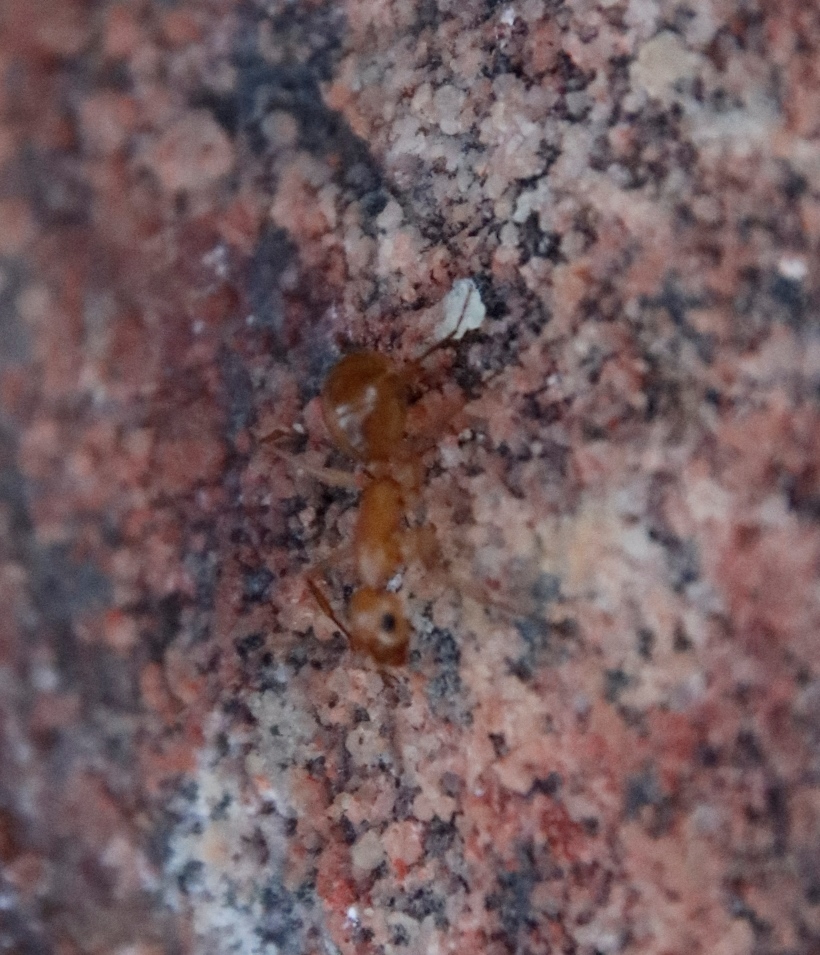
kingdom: Animalia
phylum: Arthropoda
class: Insecta
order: Hymenoptera
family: Formicidae
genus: Camponotus
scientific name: Camponotus mystaceus
